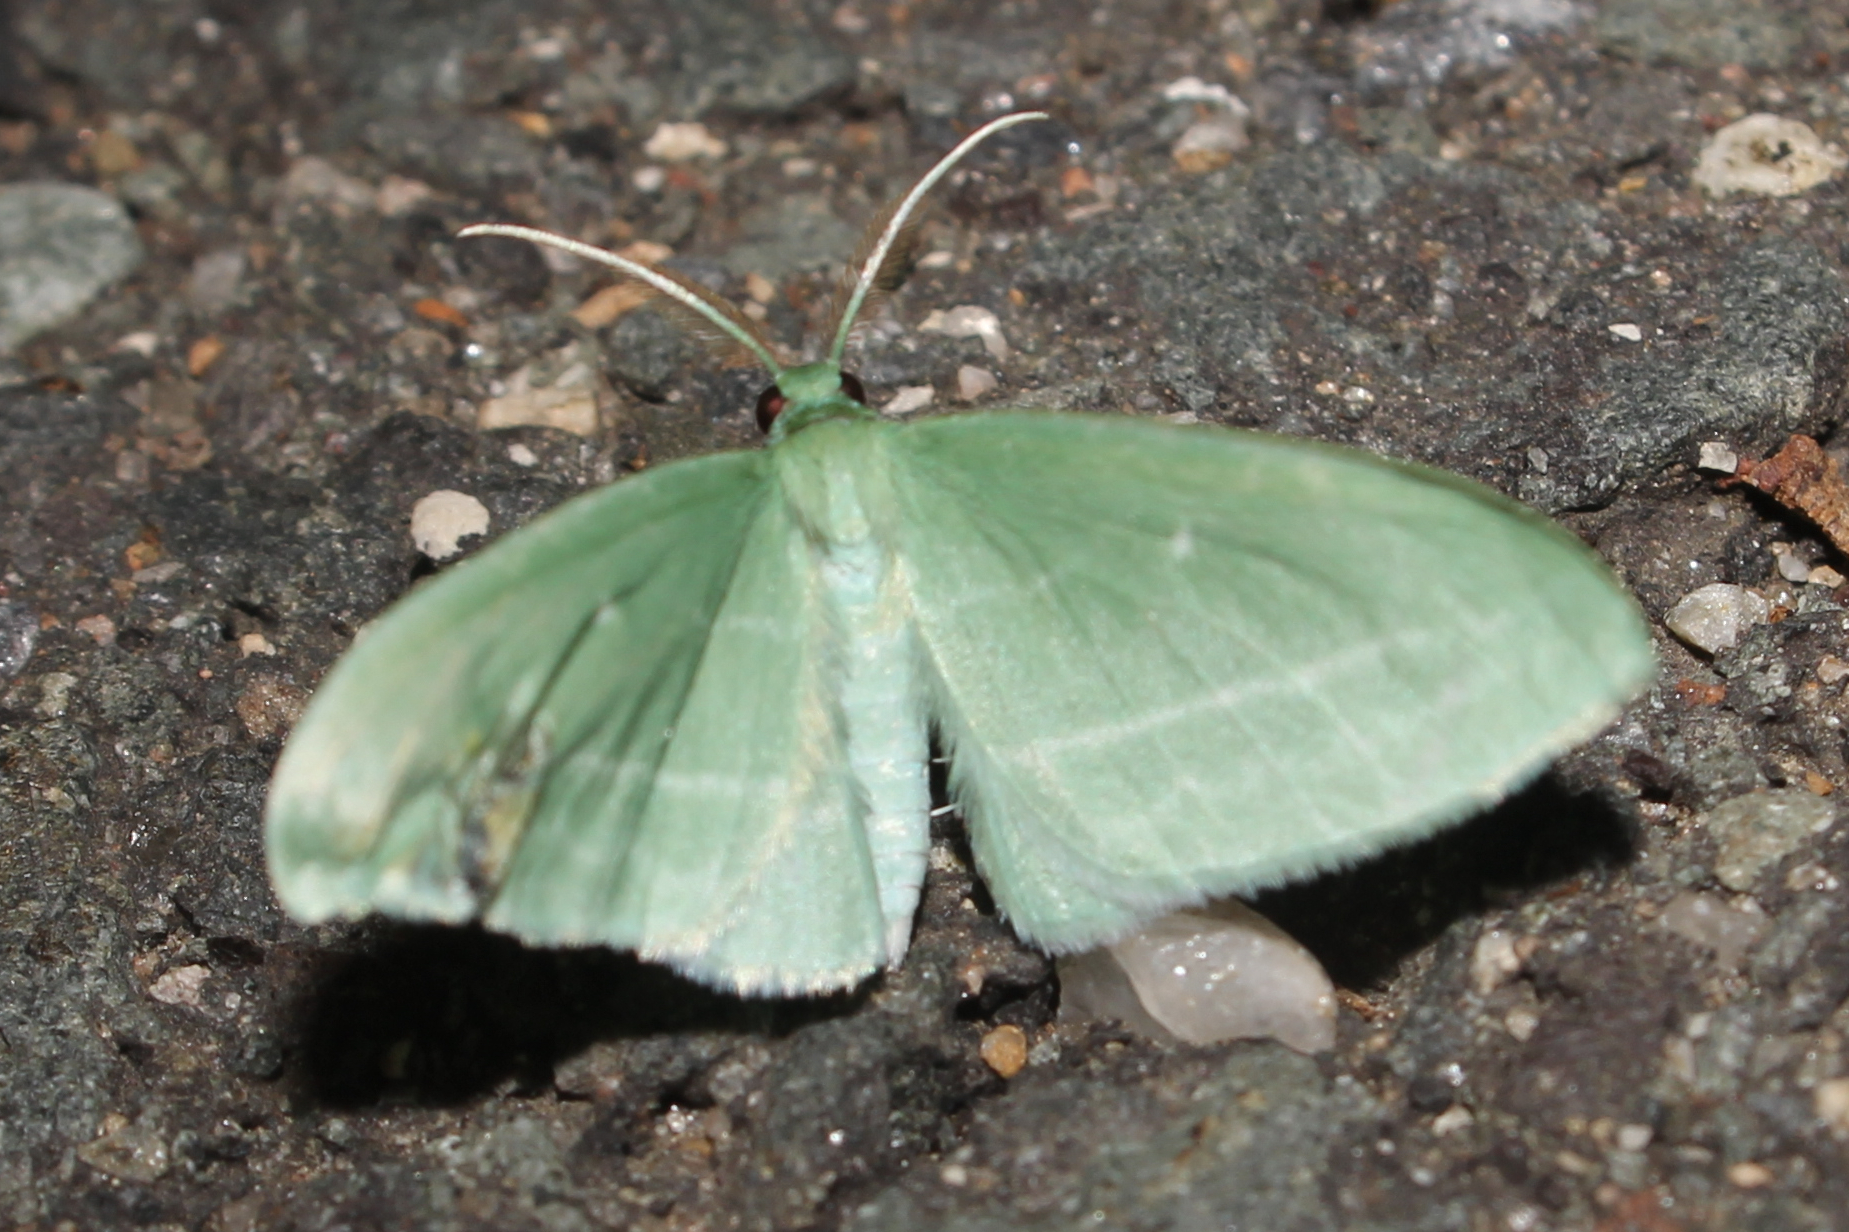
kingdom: Animalia
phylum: Arthropoda
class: Insecta
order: Lepidoptera
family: Geometridae
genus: Dyspteris
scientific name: Dyspteris abortivaria
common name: Bad-wing
